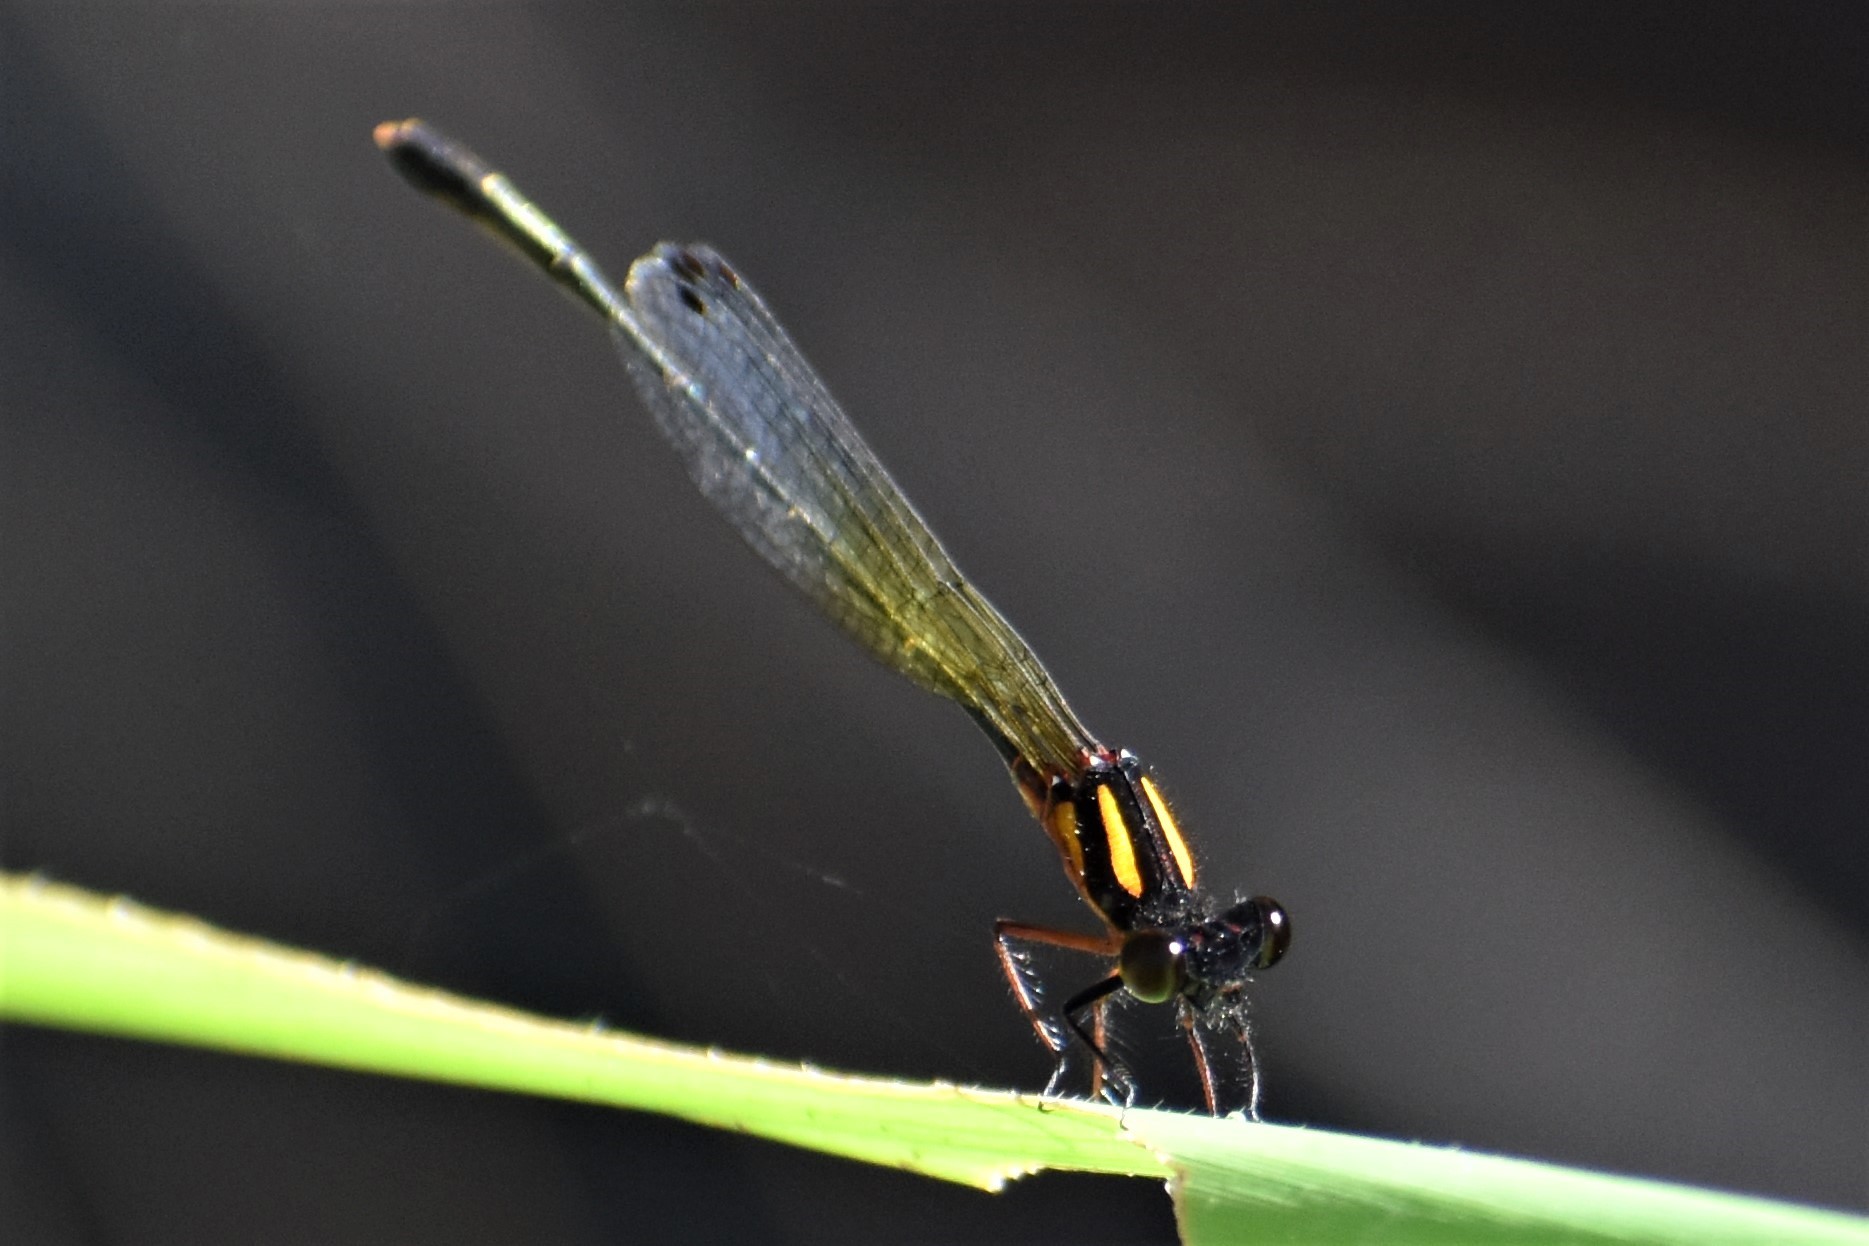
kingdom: Animalia
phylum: Arthropoda
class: Insecta
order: Odonata
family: Platycnemididae
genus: Nososticta
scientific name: Nososticta solida
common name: Orange threadtail
